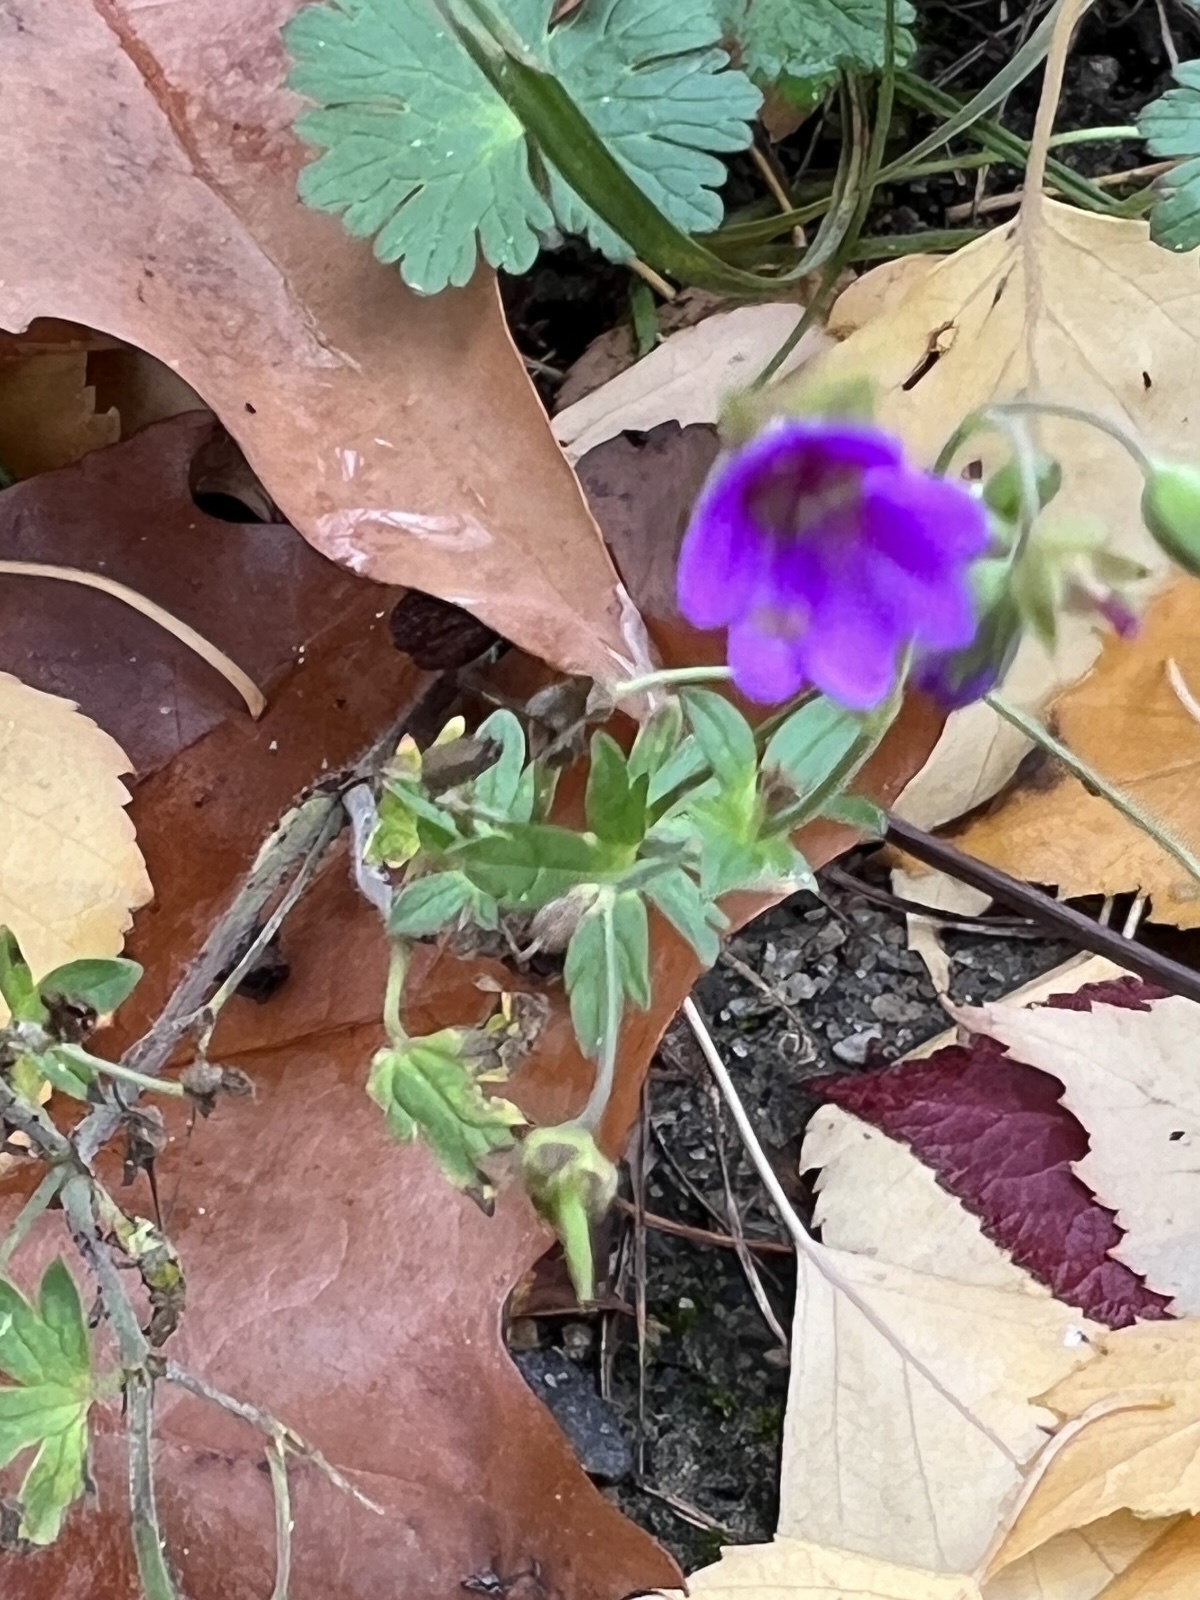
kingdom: Plantae
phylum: Tracheophyta
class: Magnoliopsida
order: Geraniales
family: Geraniaceae
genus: Geranium
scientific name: Geranium pyrenaicum
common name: Hedgerow crane's-bill
